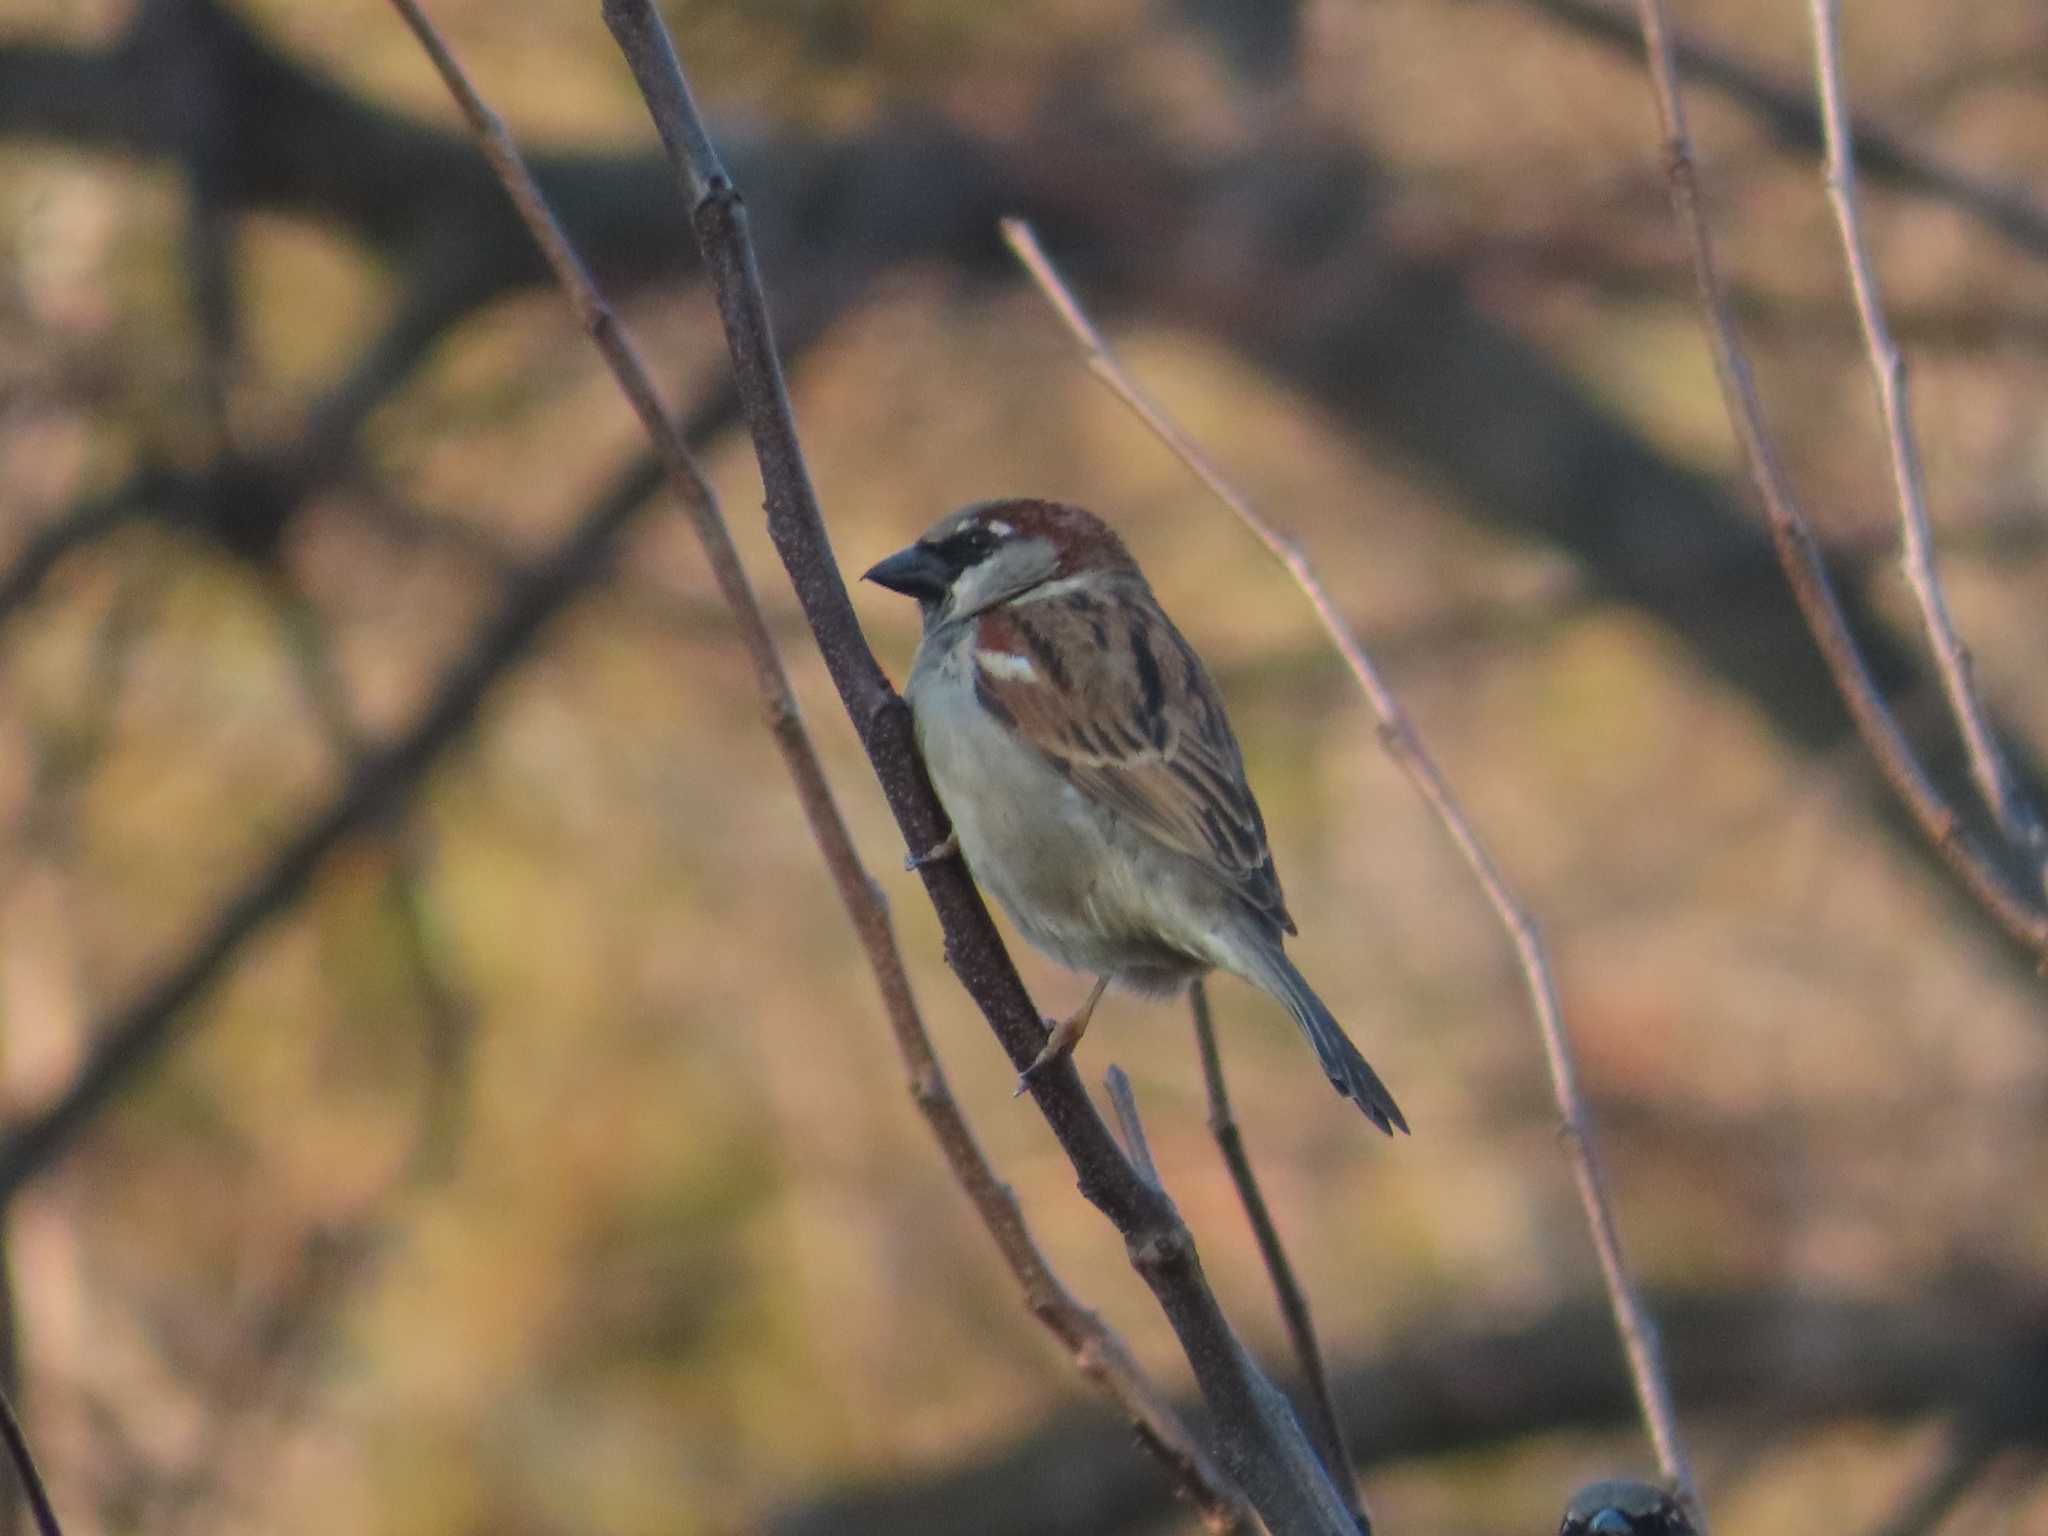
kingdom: Animalia
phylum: Chordata
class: Aves
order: Passeriformes
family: Passeridae
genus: Passer
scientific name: Passer domesticus
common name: House sparrow
